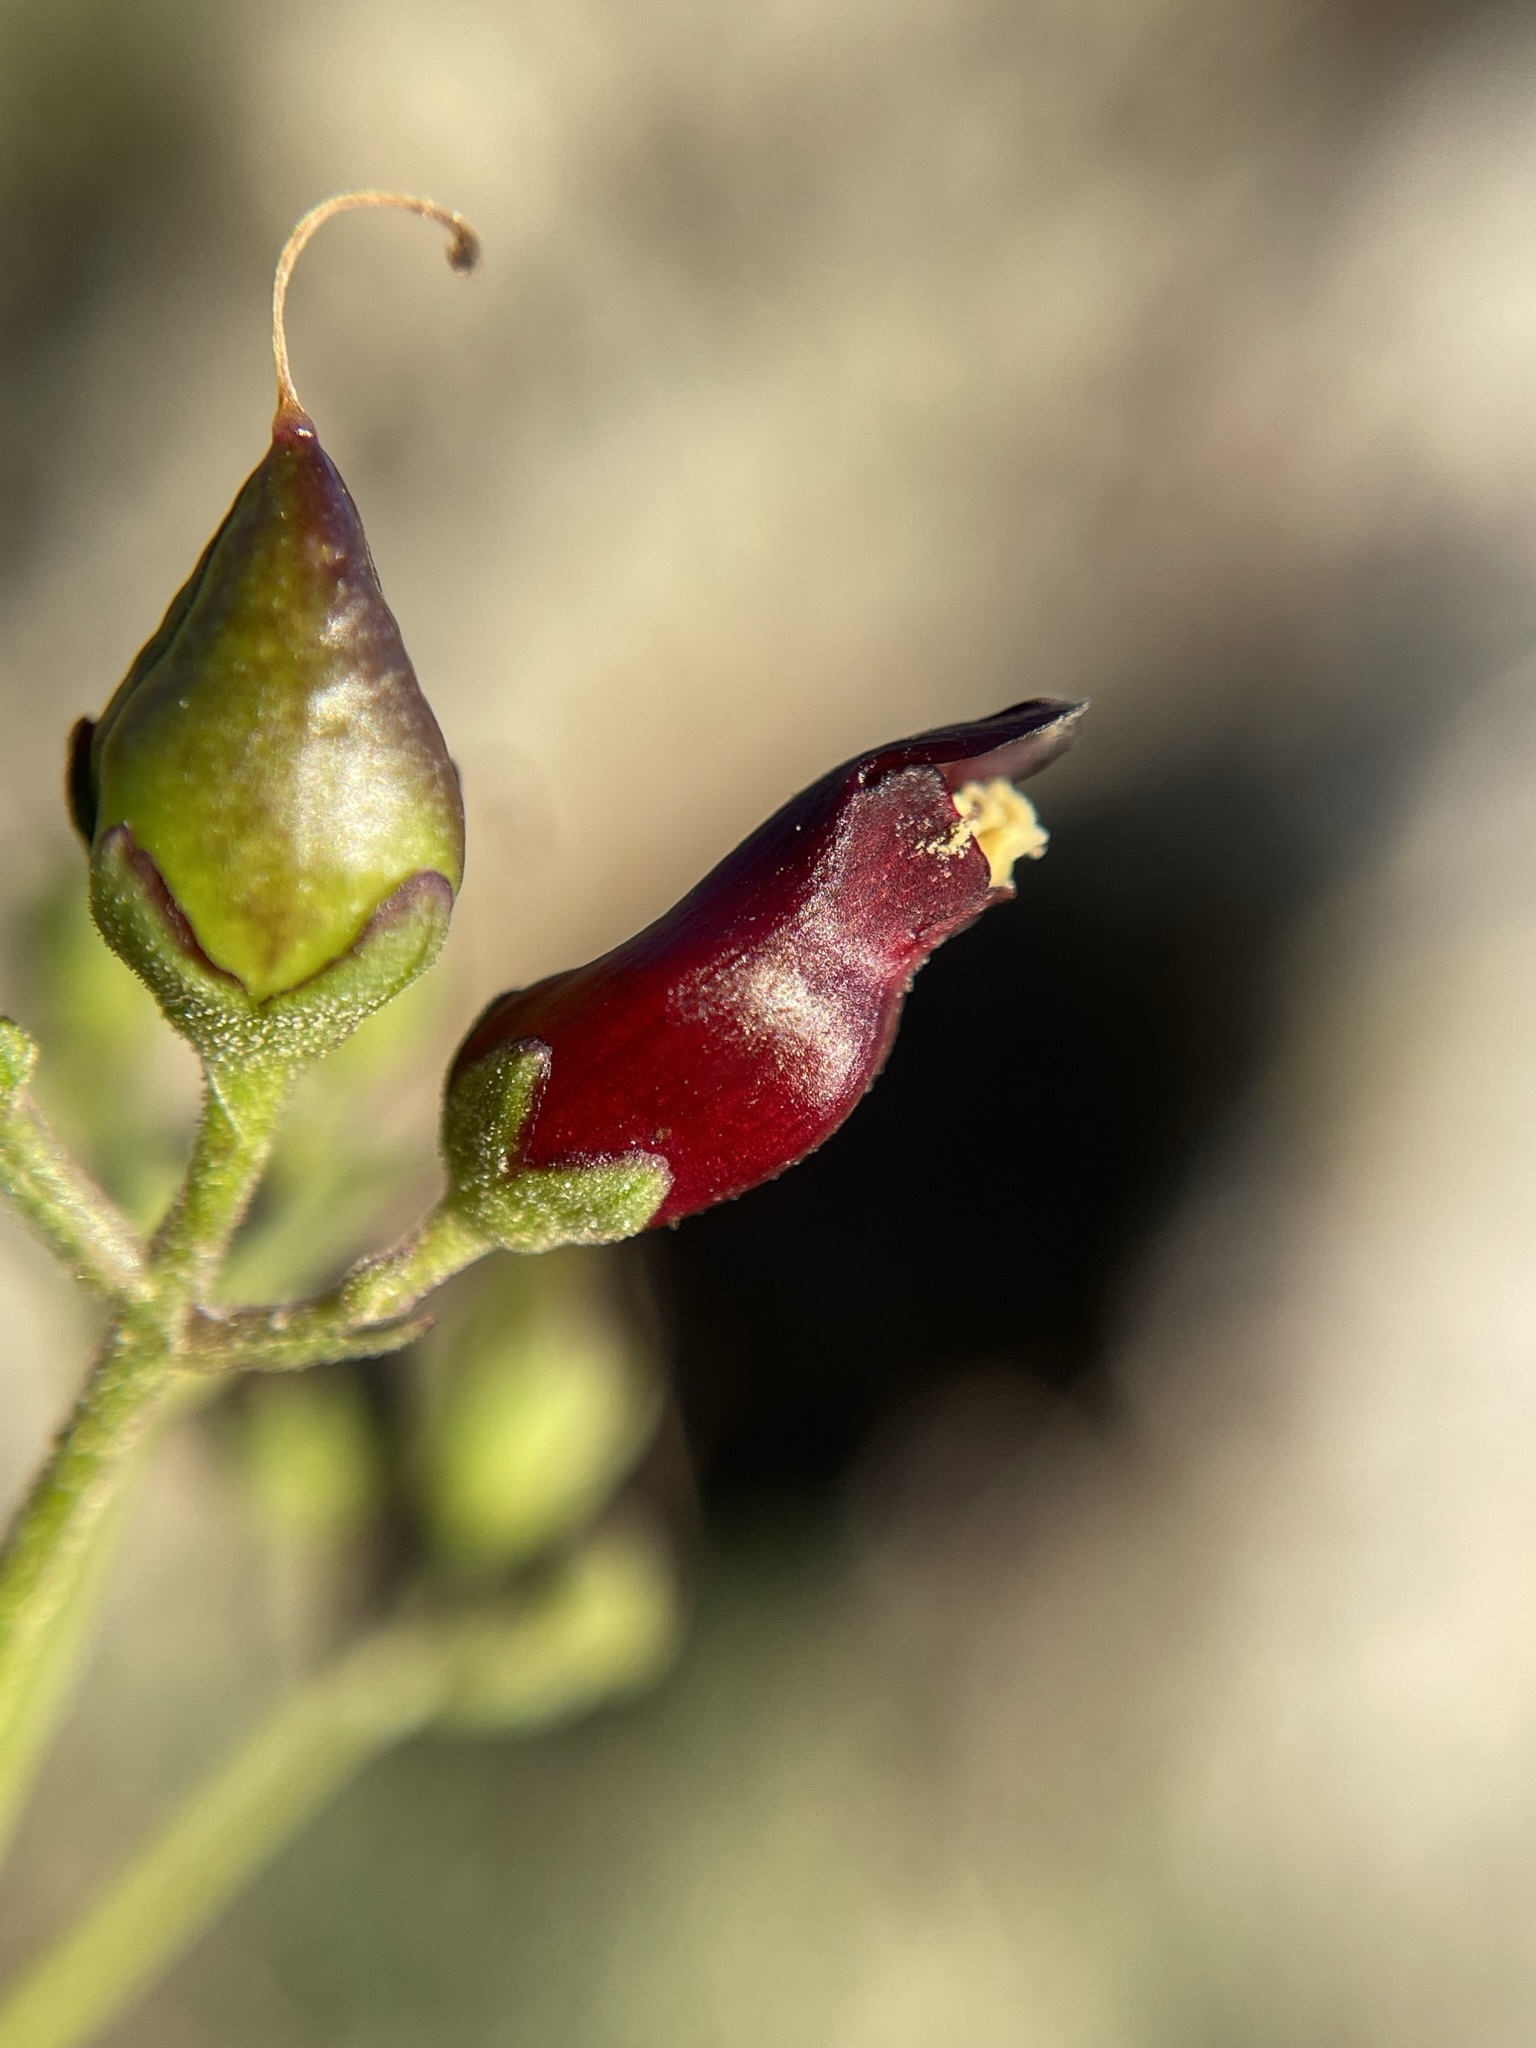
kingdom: Plantae
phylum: Tracheophyta
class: Magnoliopsida
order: Lamiales
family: Scrophulariaceae
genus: Scrophularia
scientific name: Scrophularia atrata
